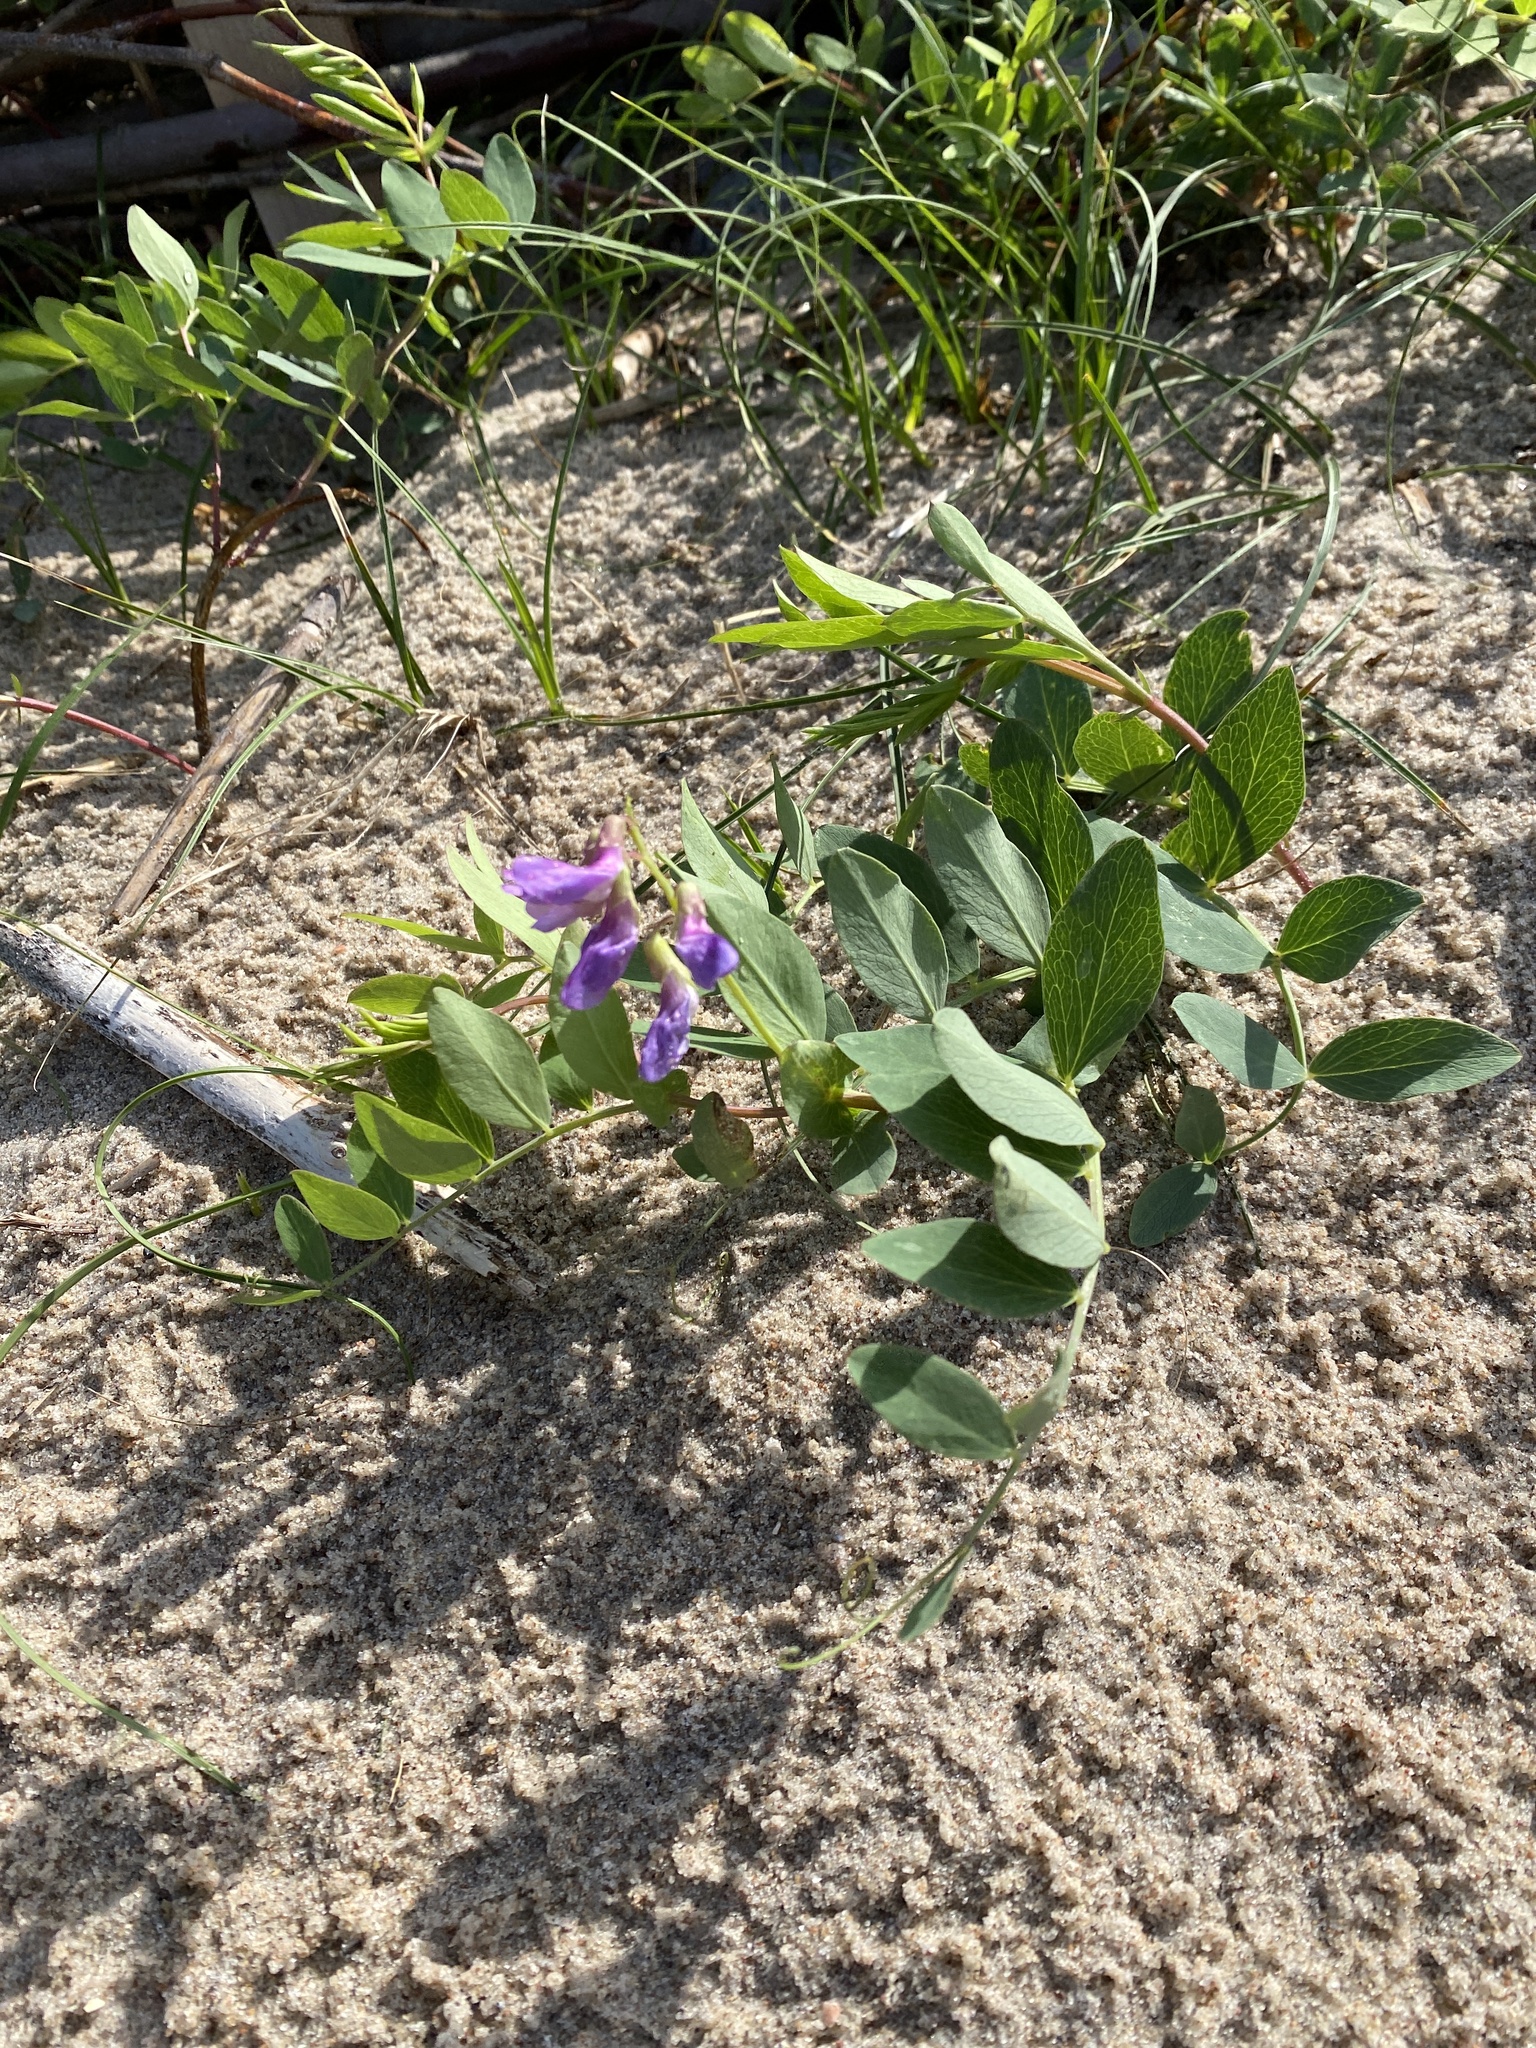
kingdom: Plantae
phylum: Tracheophyta
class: Magnoliopsida
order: Fabales
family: Fabaceae
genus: Lathyrus
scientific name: Lathyrus japonicus
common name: Sea pea
